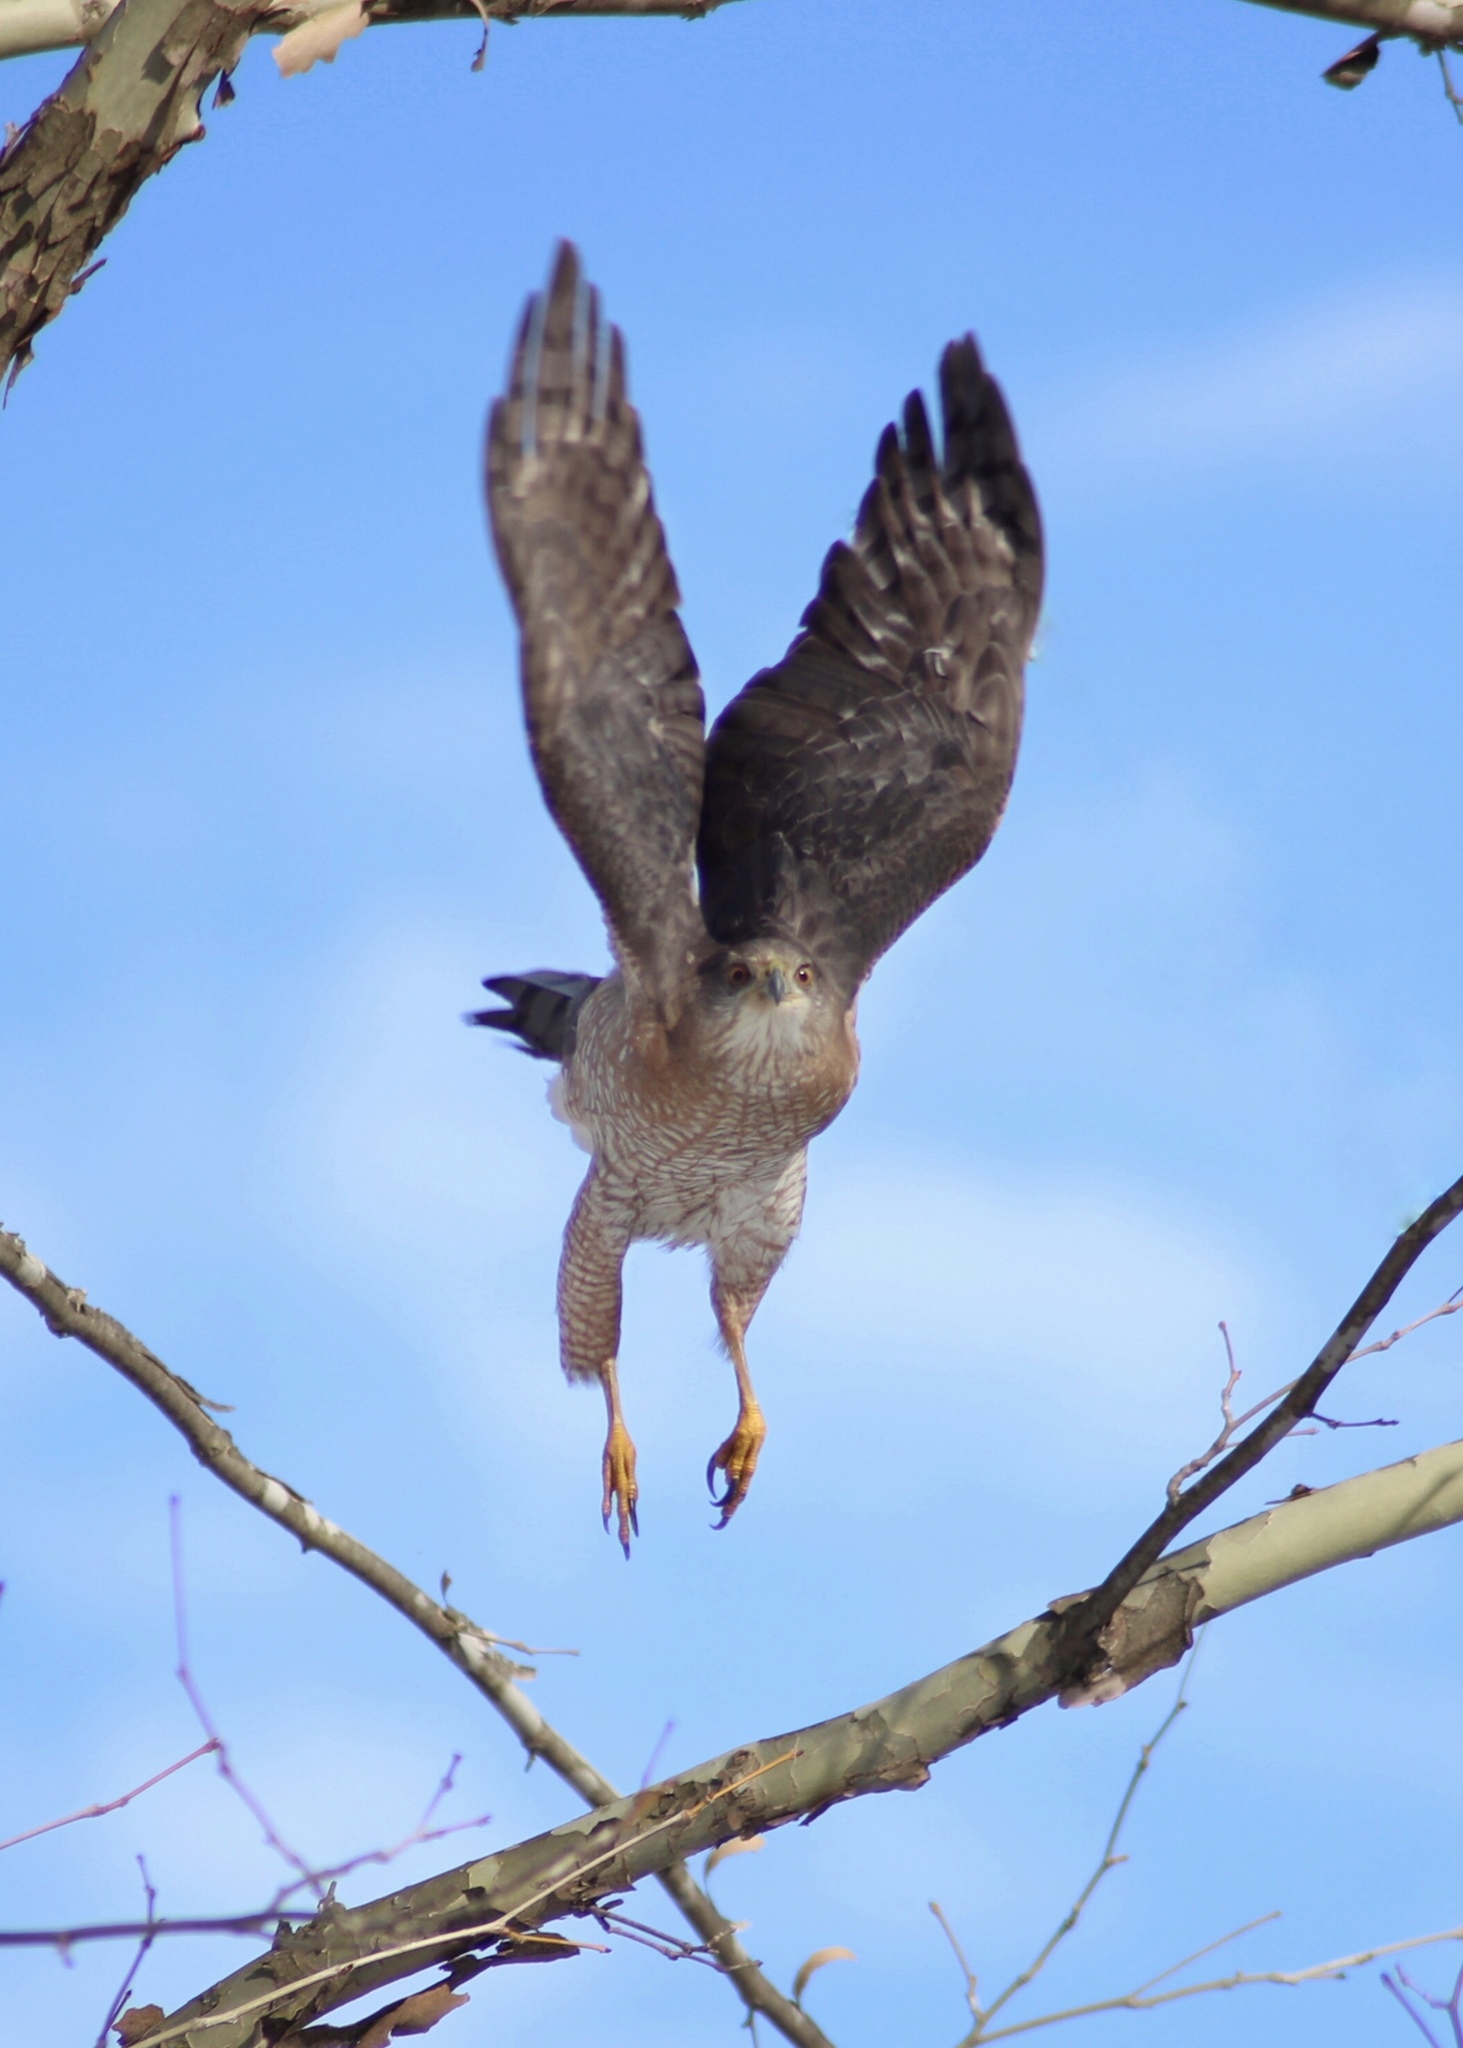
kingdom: Animalia
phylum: Chordata
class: Aves
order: Accipitriformes
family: Accipitridae
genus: Accipiter
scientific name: Accipiter cooperii
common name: Cooper's hawk
